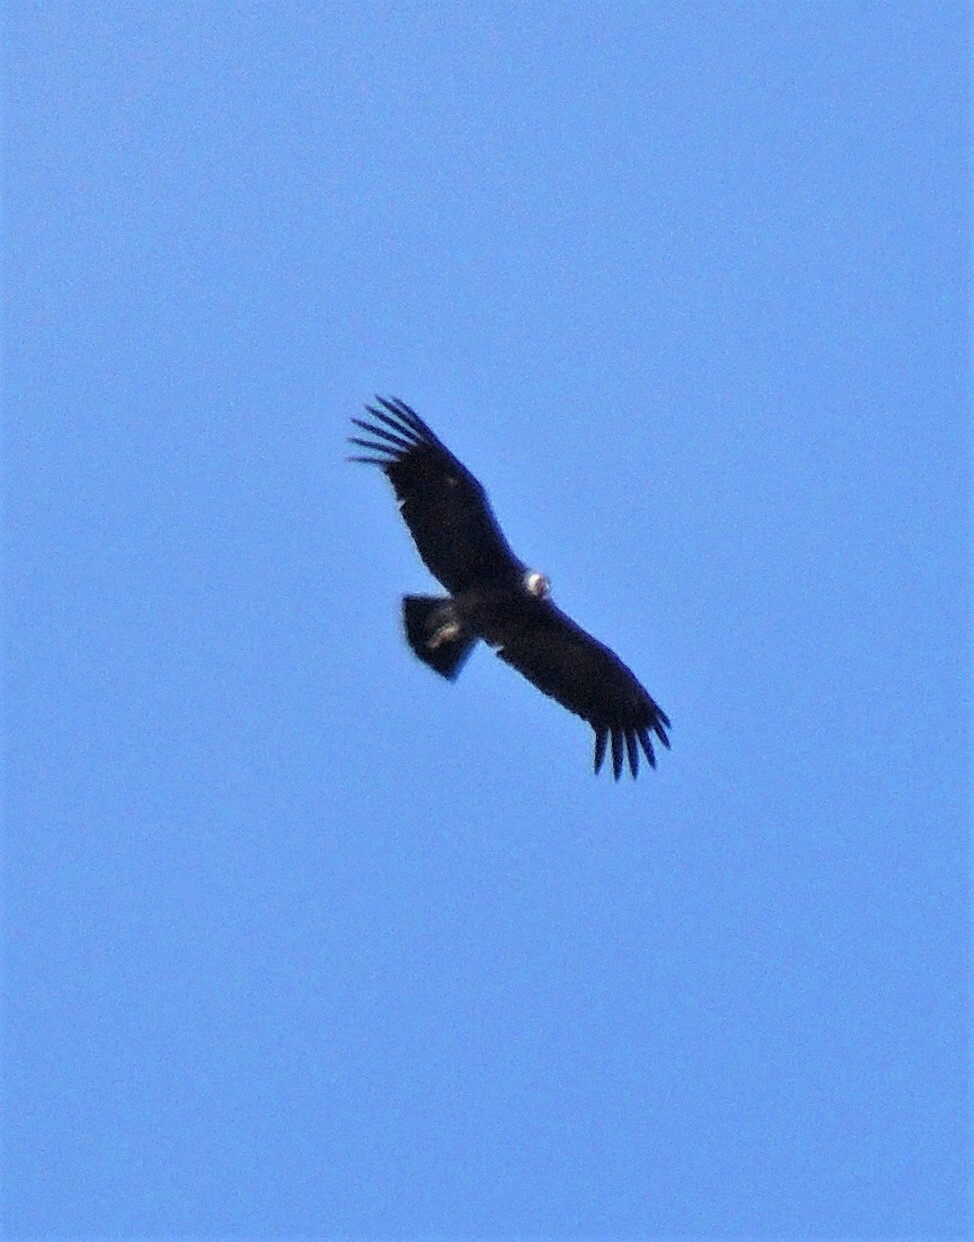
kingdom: Animalia
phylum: Chordata
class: Aves
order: Accipitriformes
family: Cathartidae
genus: Vultur
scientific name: Vultur gryphus
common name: Andean condor
